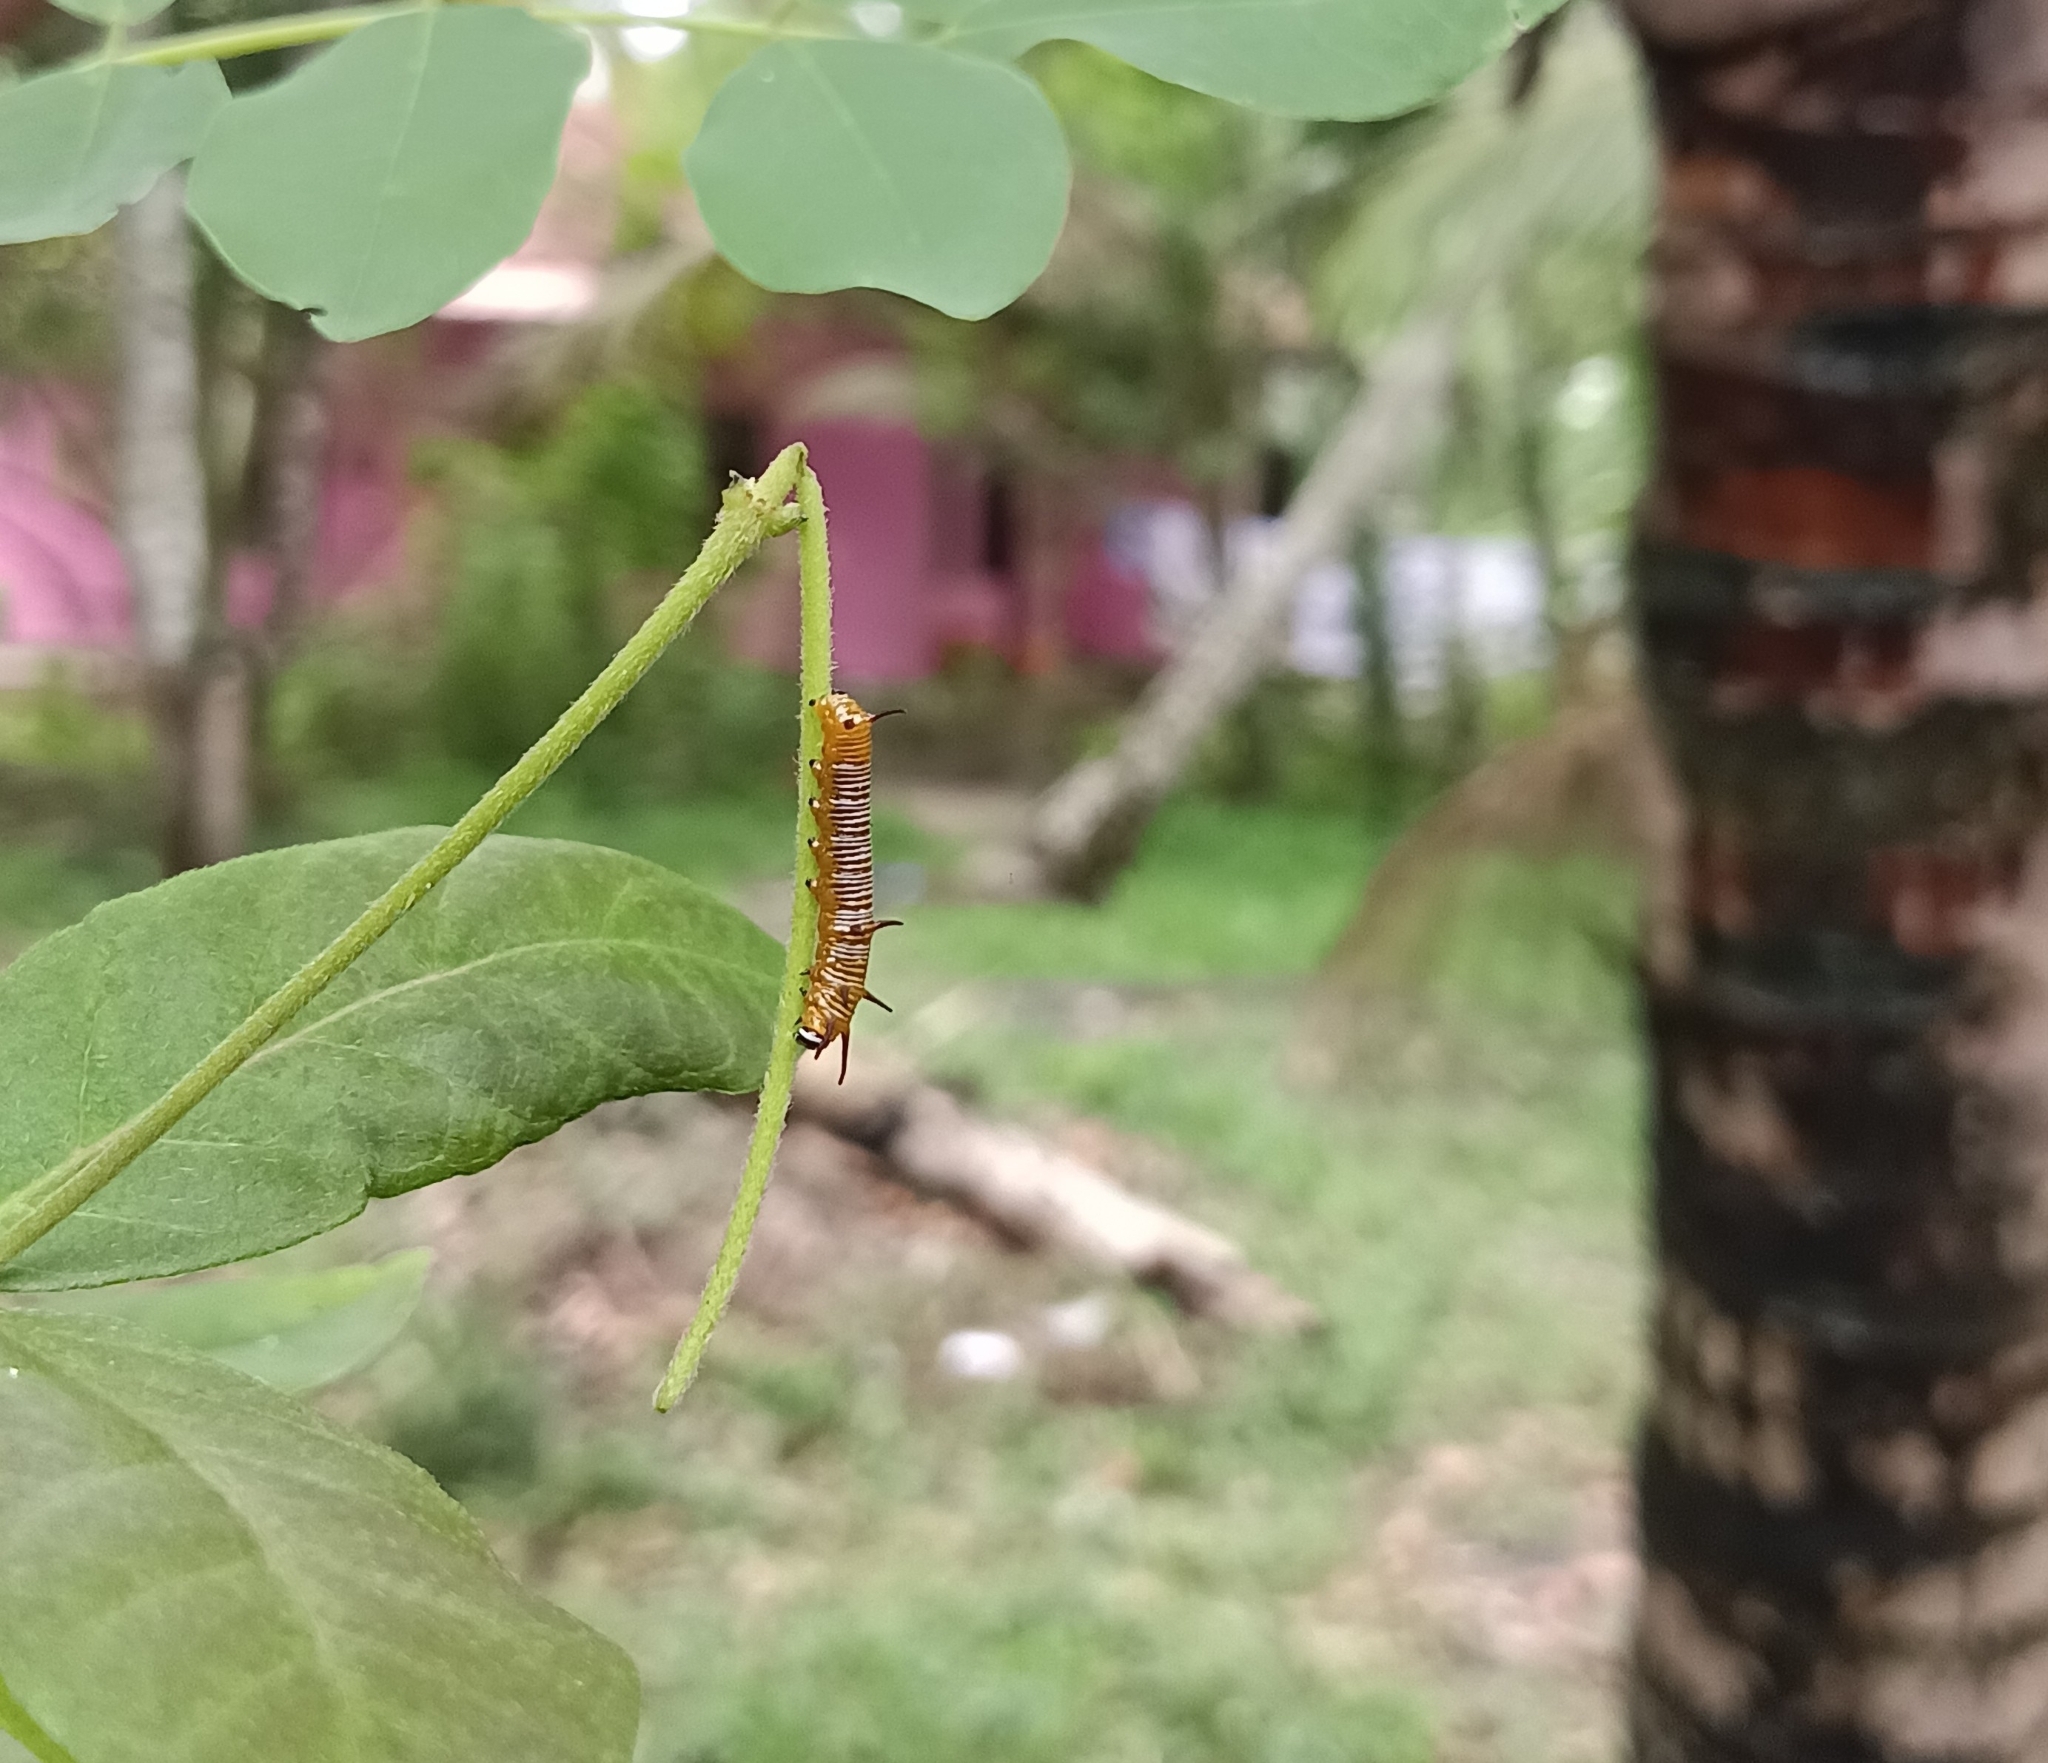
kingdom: Animalia
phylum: Arthropoda
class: Insecta
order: Lepidoptera
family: Nymphalidae
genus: Euploea
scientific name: Euploea core
